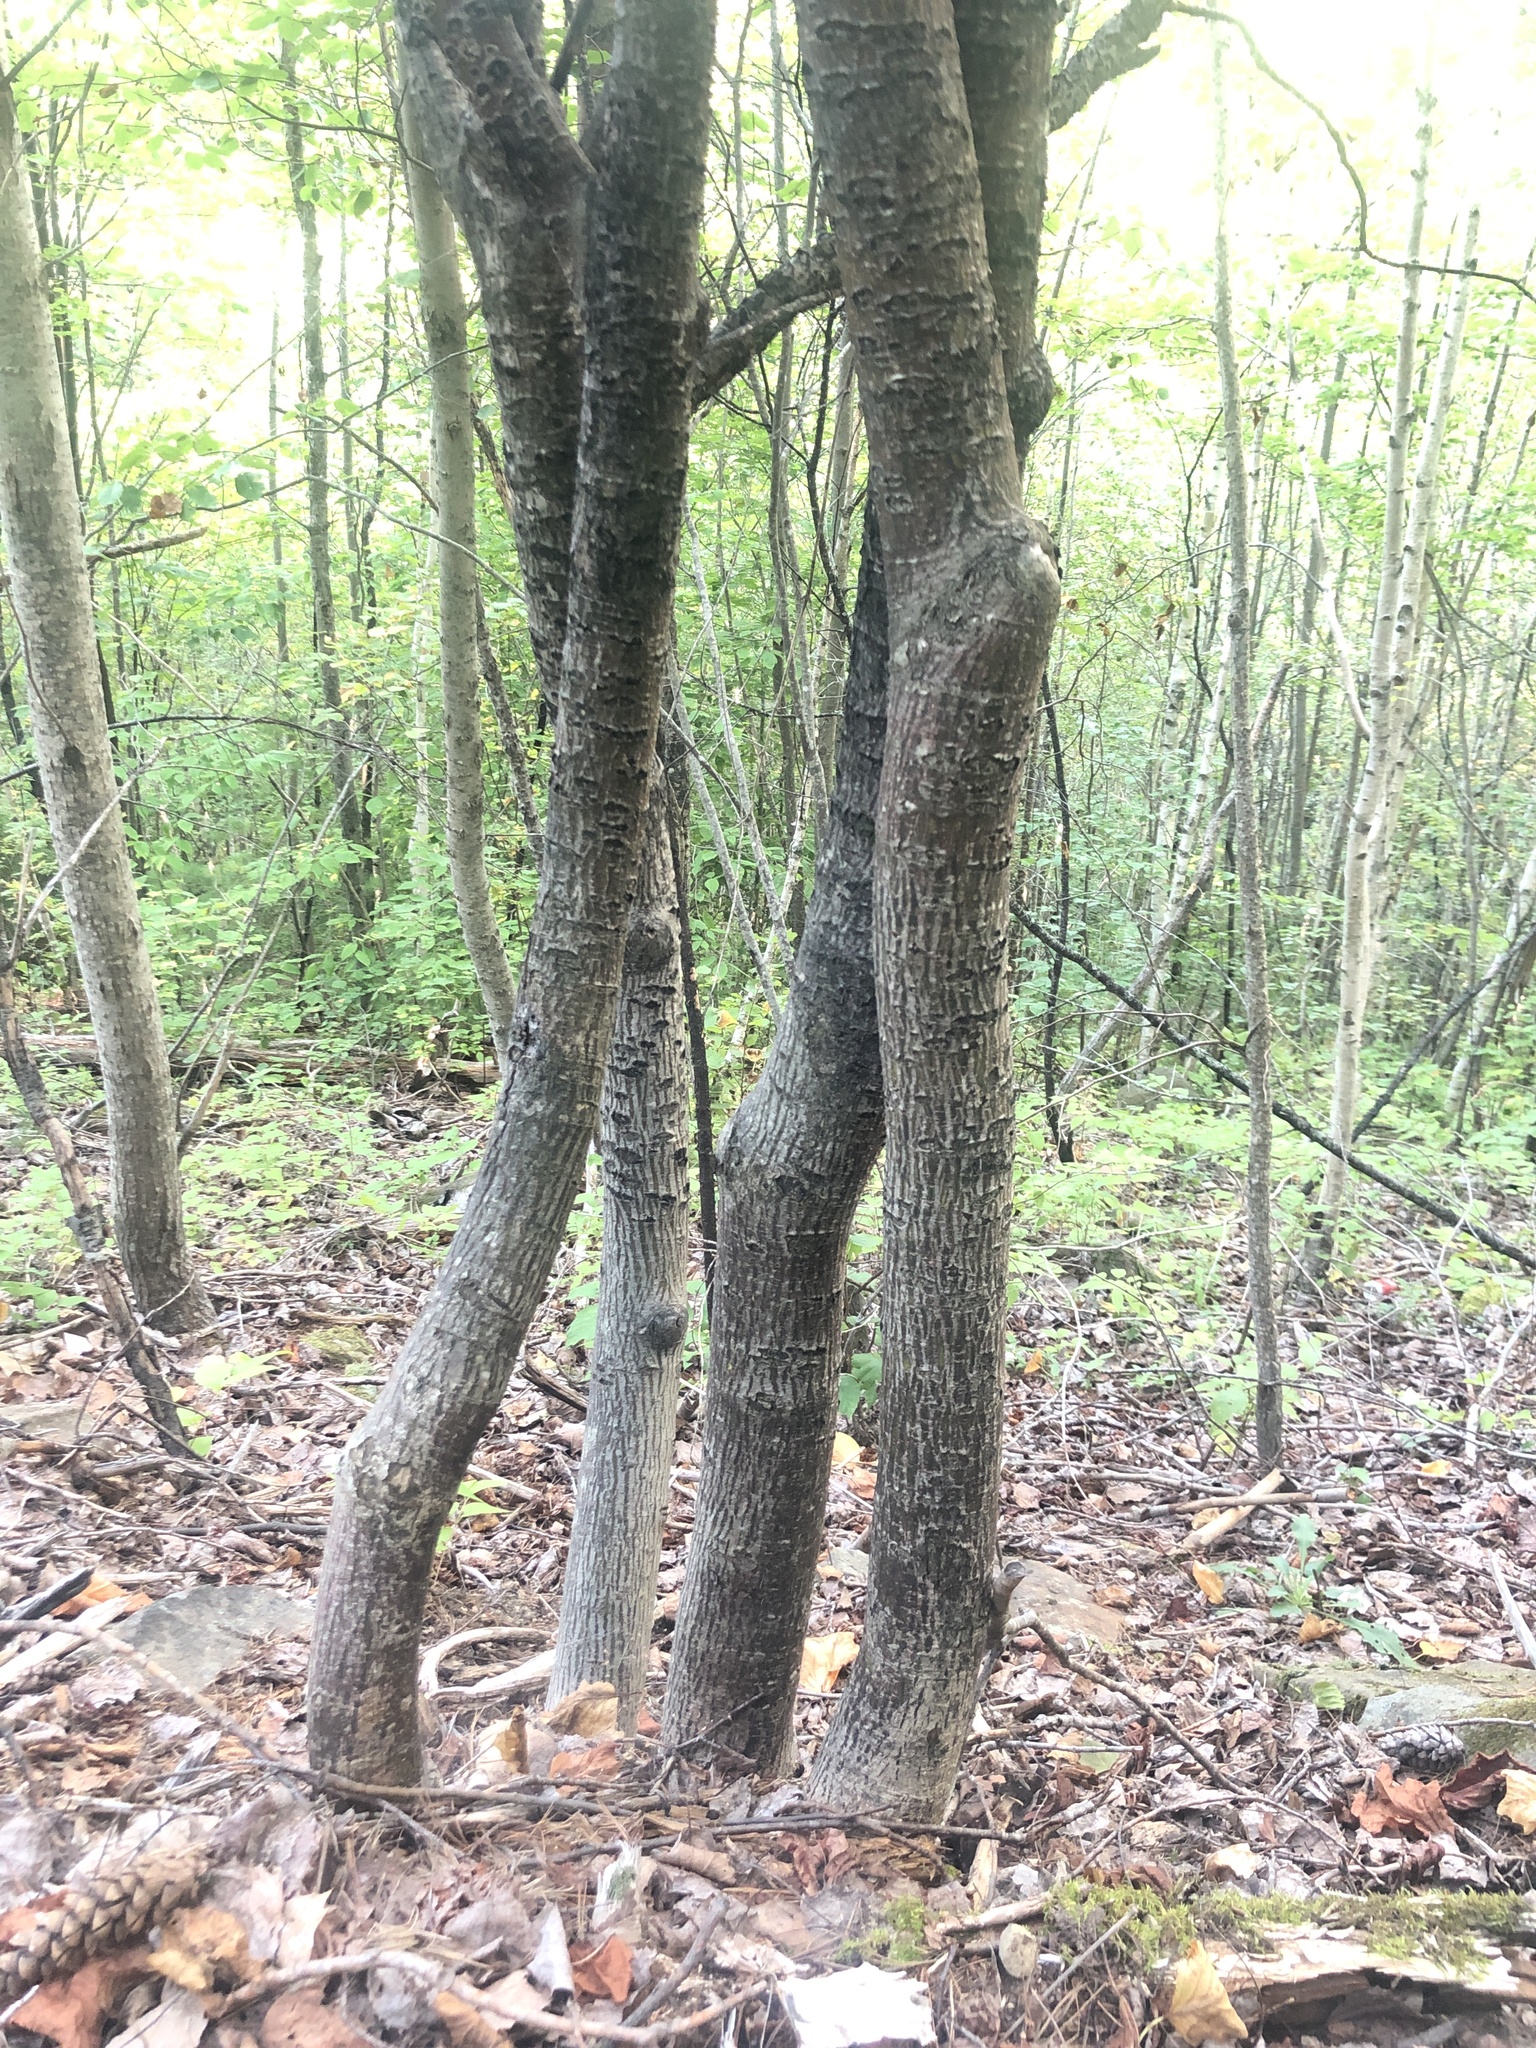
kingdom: Plantae
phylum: Tracheophyta
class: Magnoliopsida
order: Sapindales
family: Sapindaceae
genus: Acer
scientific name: Acer pensylvanicum
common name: Moosewood
